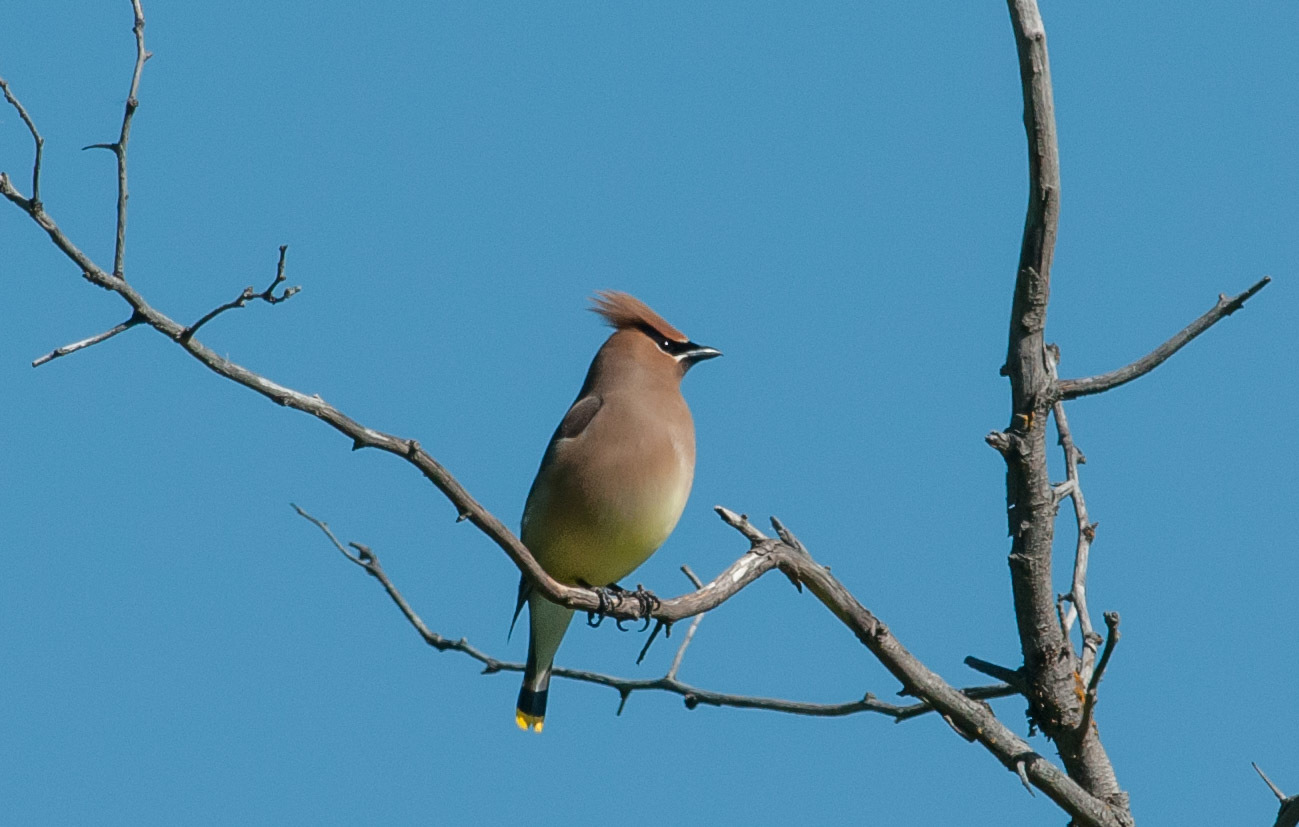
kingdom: Animalia
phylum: Chordata
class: Aves
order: Passeriformes
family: Bombycillidae
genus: Bombycilla
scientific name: Bombycilla cedrorum
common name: Cedar waxwing
